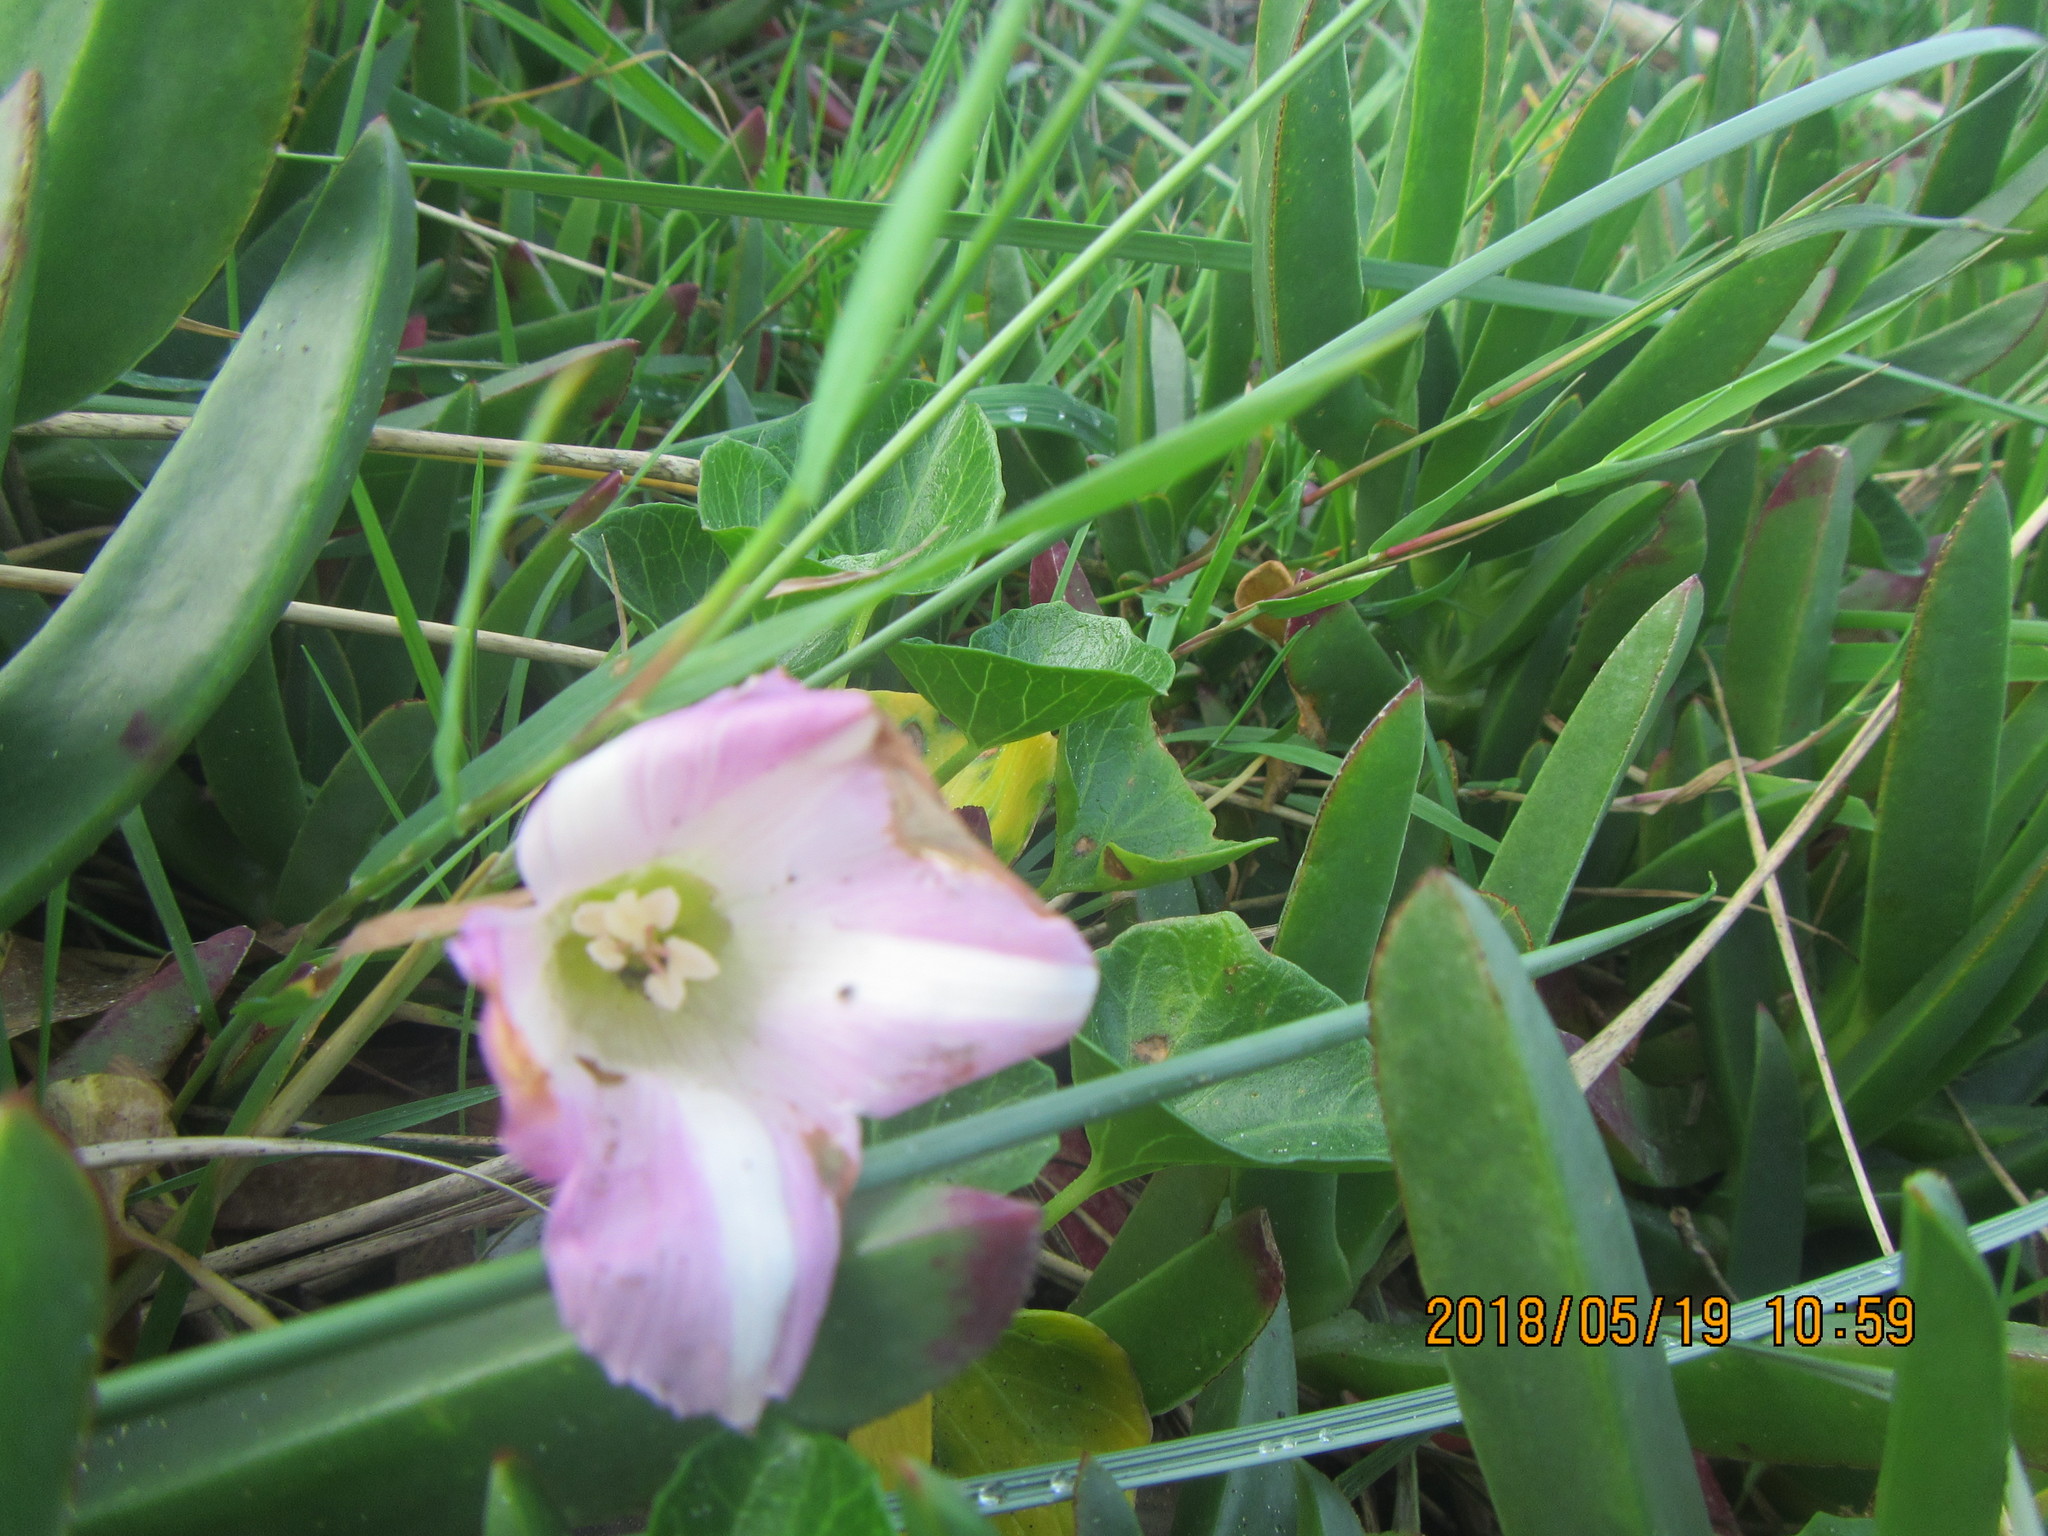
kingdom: Plantae
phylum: Tracheophyta
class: Magnoliopsida
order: Solanales
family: Convolvulaceae
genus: Calystegia
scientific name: Calystegia soldanella
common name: Sea bindweed
